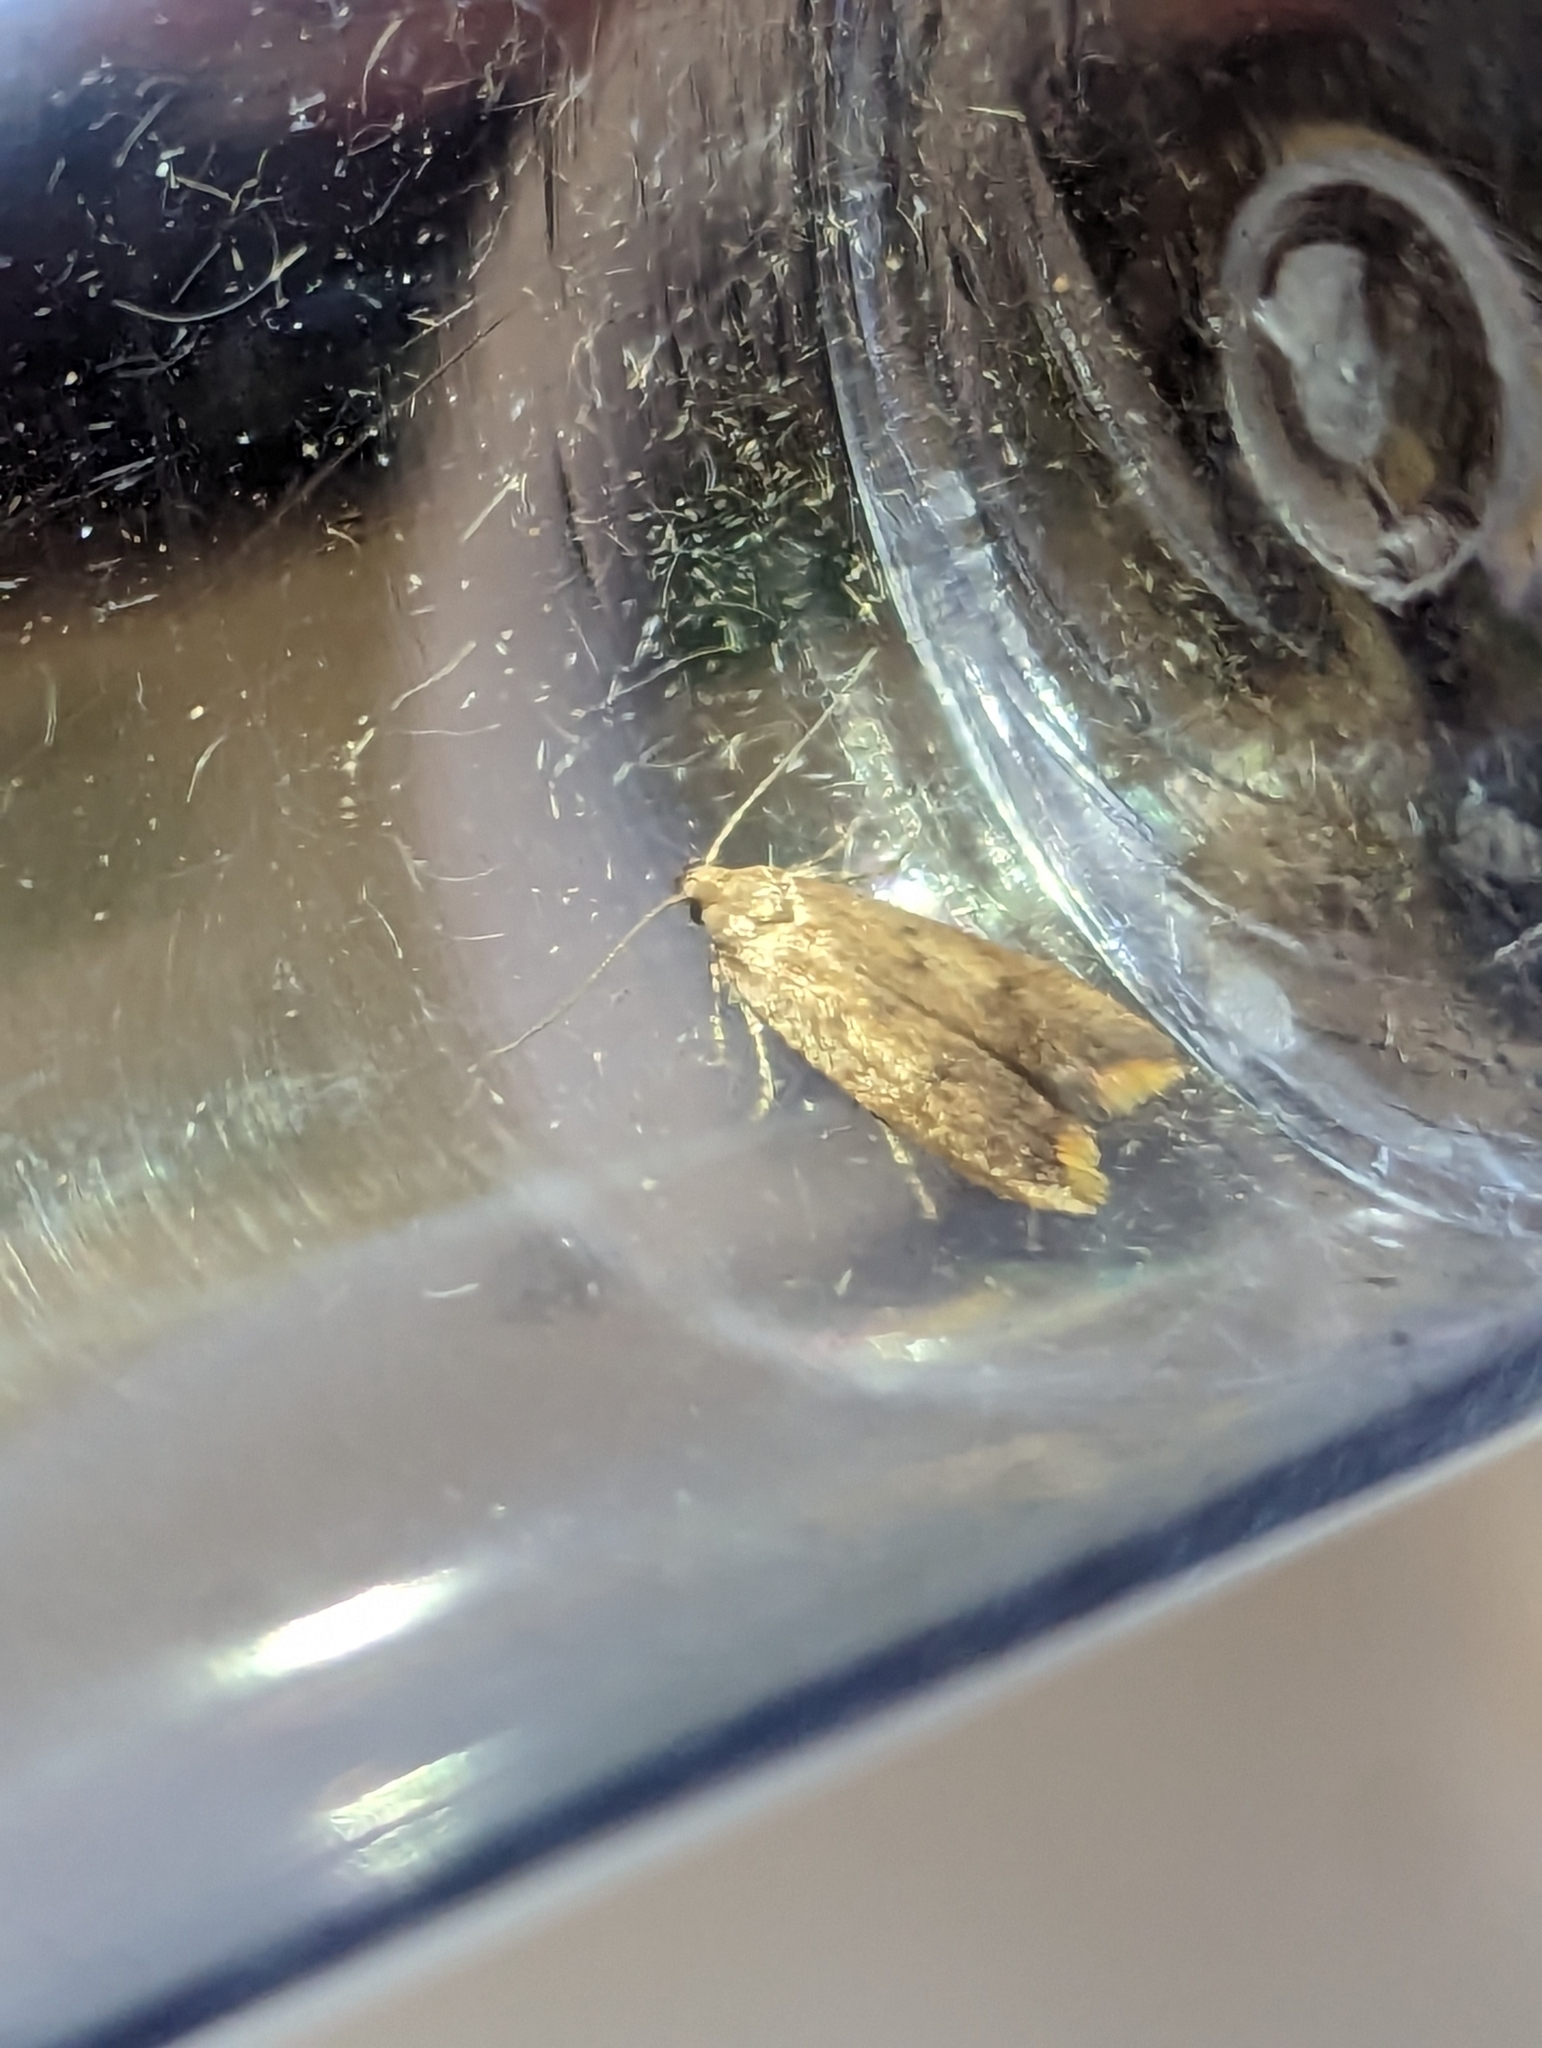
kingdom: Animalia
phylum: Arthropoda
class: Insecta
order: Lepidoptera
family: Oecophoridae
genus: Tachystola
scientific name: Tachystola acroxantha
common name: Ruddy streak
